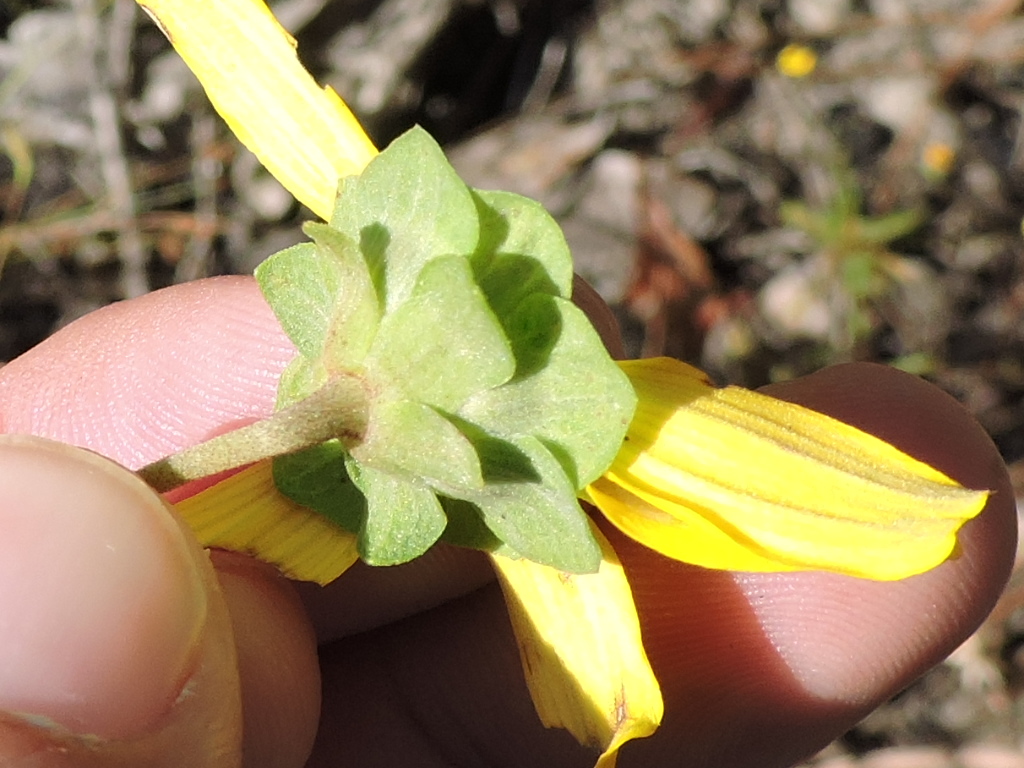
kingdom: Plantae
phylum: Tracheophyta
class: Magnoliopsida
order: Asterales
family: Asteraceae
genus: Berlandiera
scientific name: Berlandiera pumila
